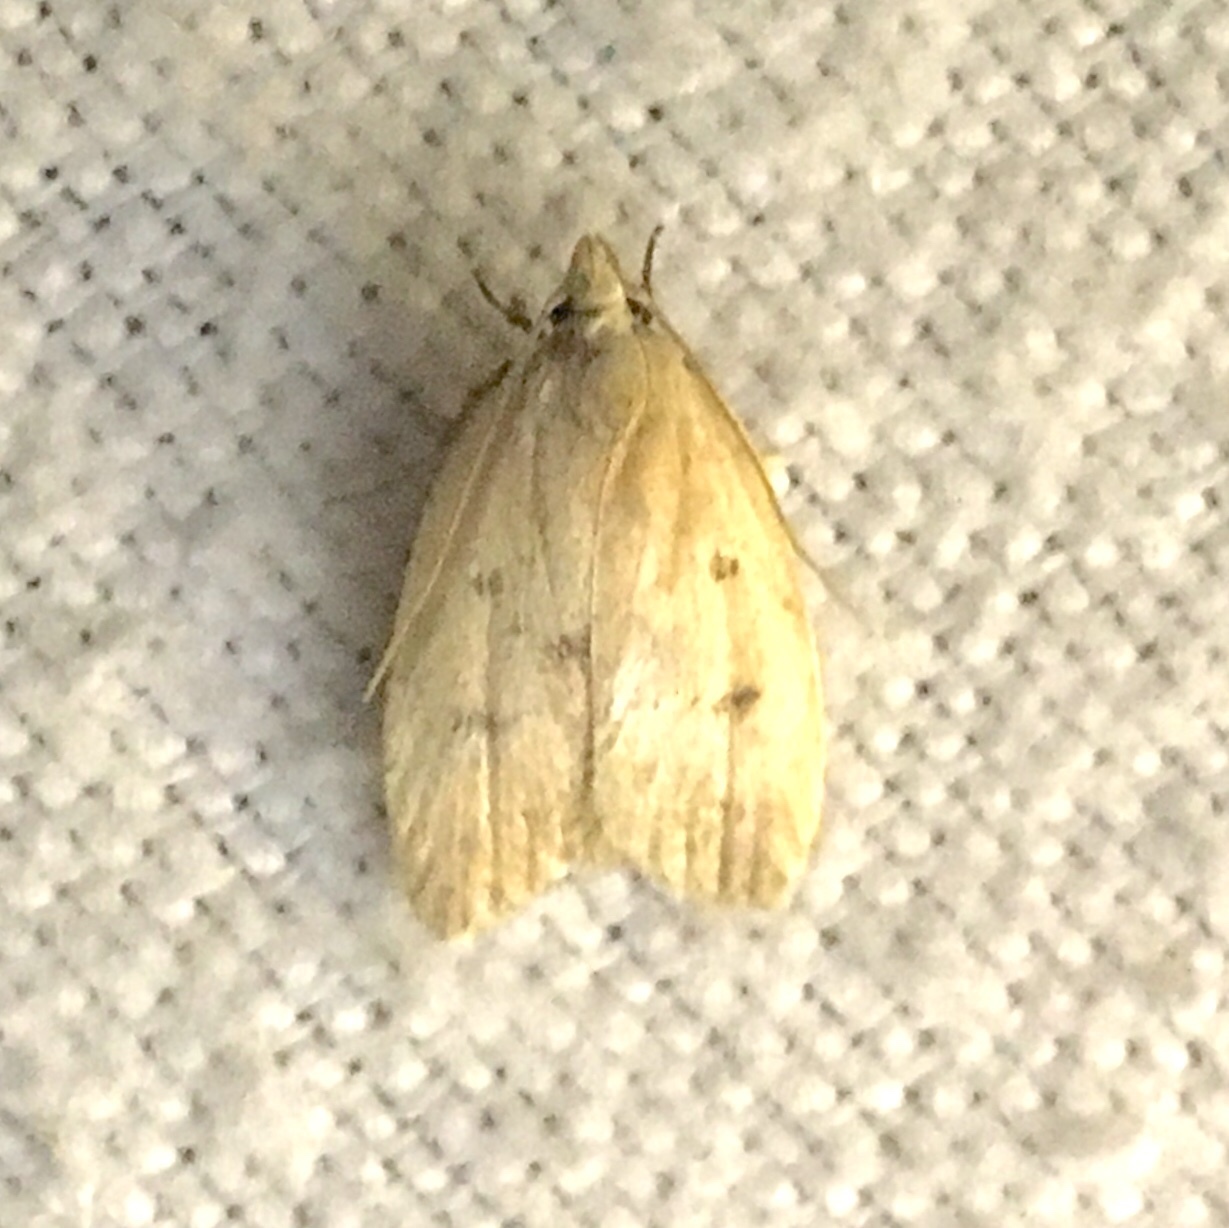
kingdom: Animalia
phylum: Arthropoda
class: Insecta
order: Lepidoptera
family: Peleopodidae
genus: Machimia
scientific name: Machimia tentoriferella
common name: Gold-striped leaftier moth
